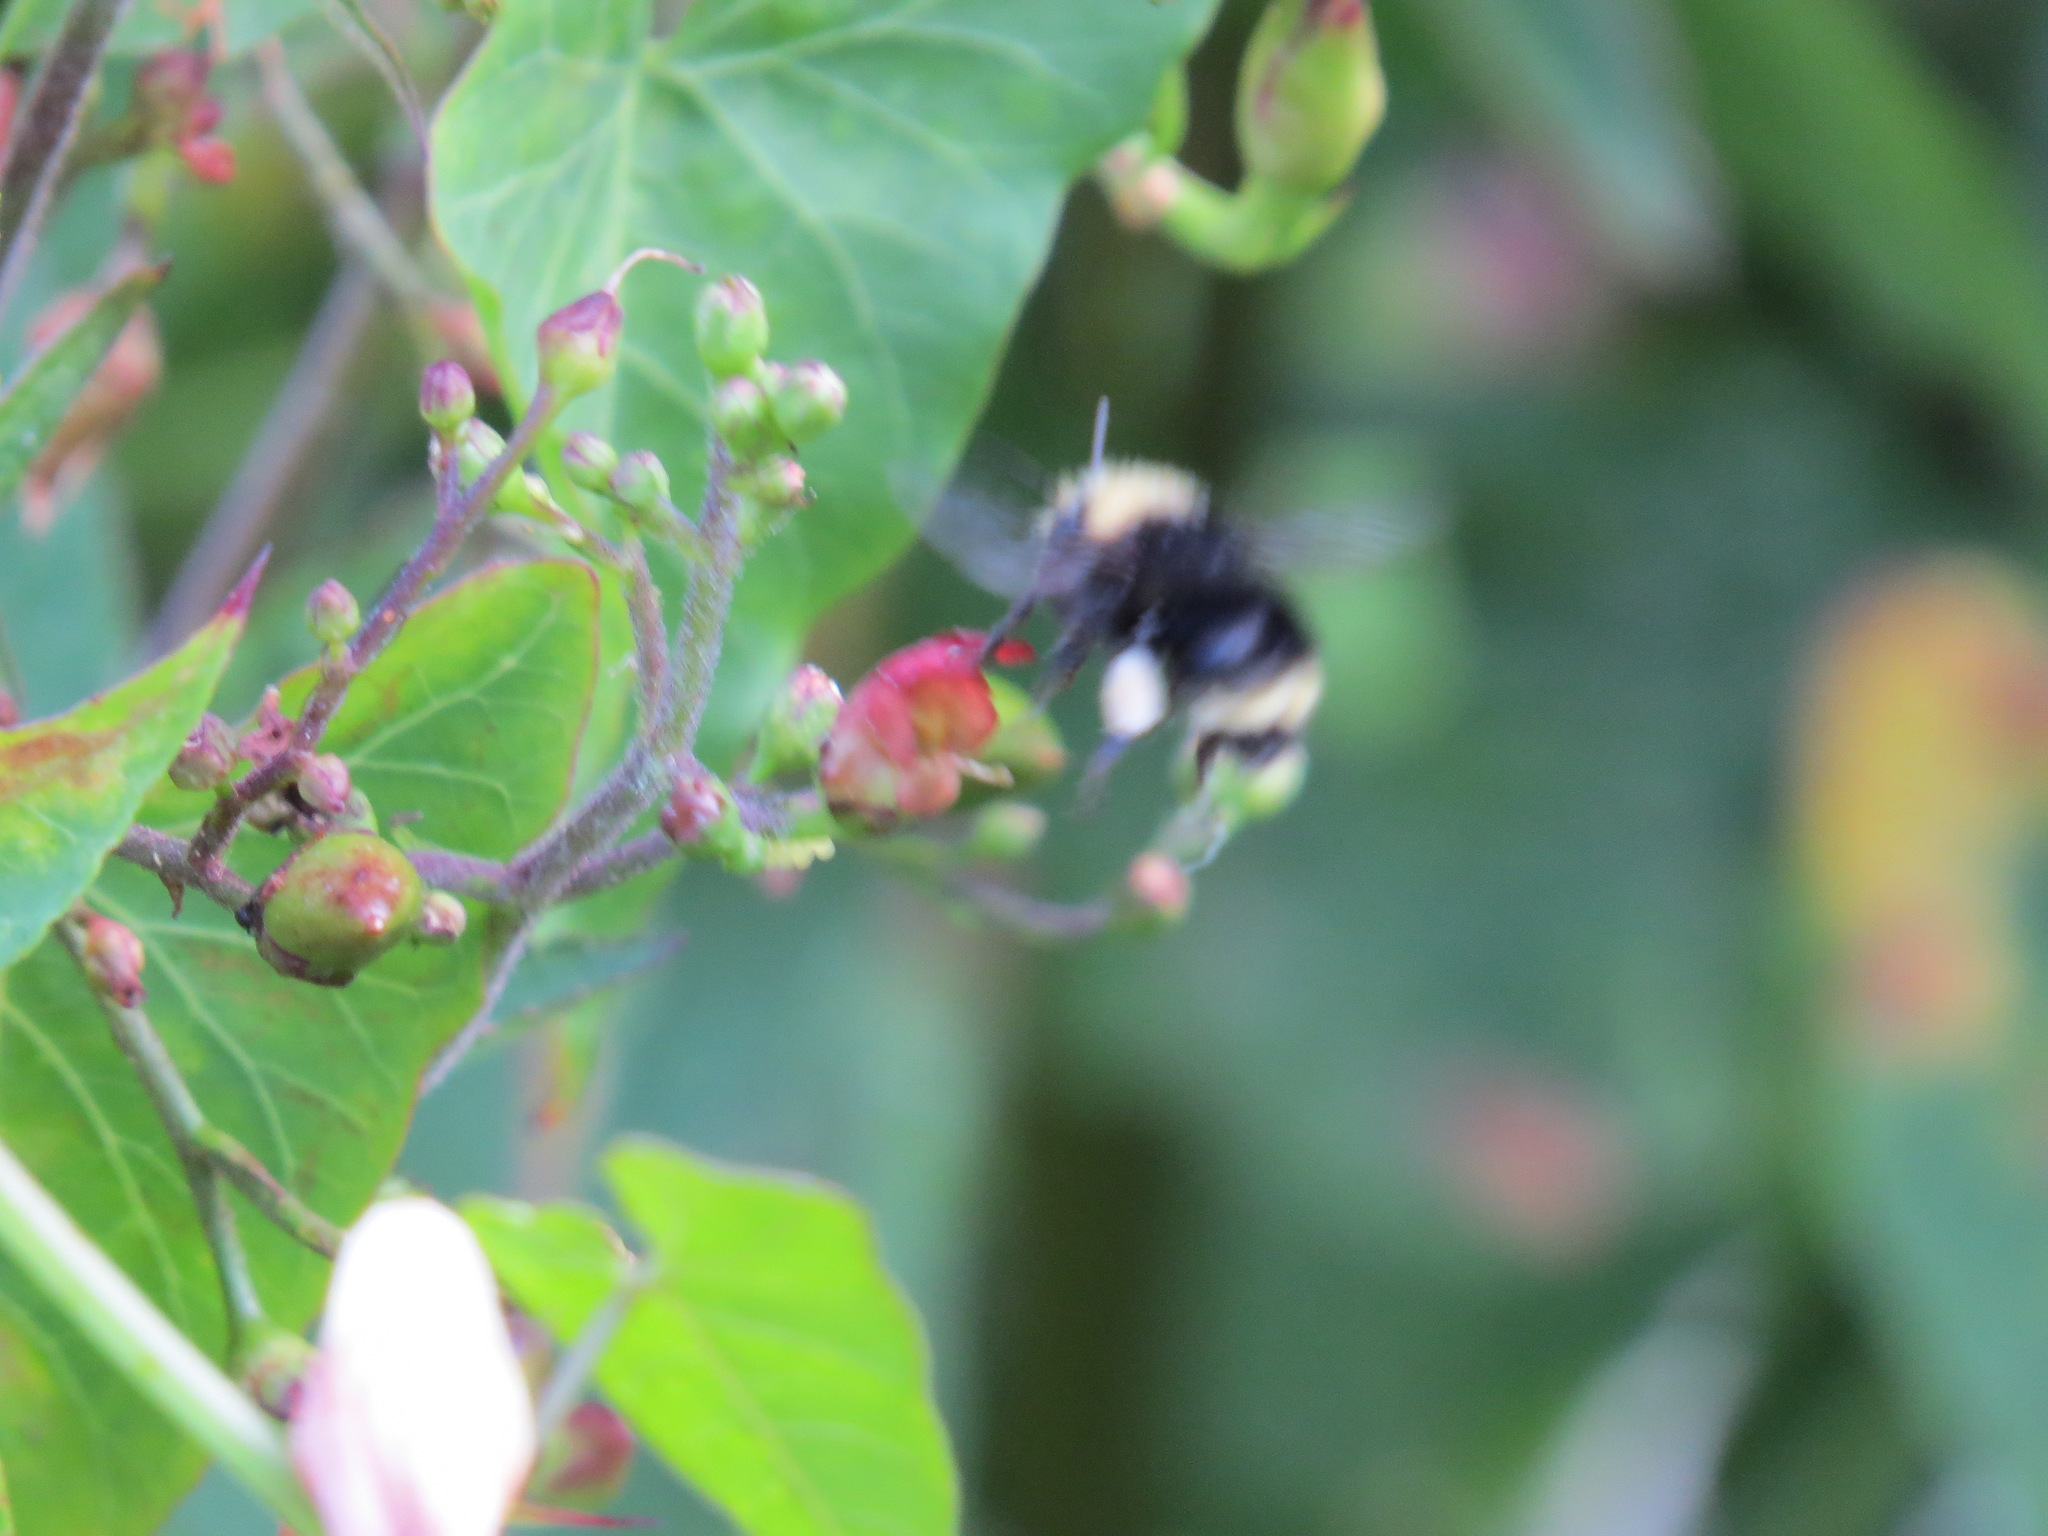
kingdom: Animalia
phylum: Arthropoda
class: Insecta
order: Hymenoptera
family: Apidae
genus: Pyrobombus
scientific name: Pyrobombus
